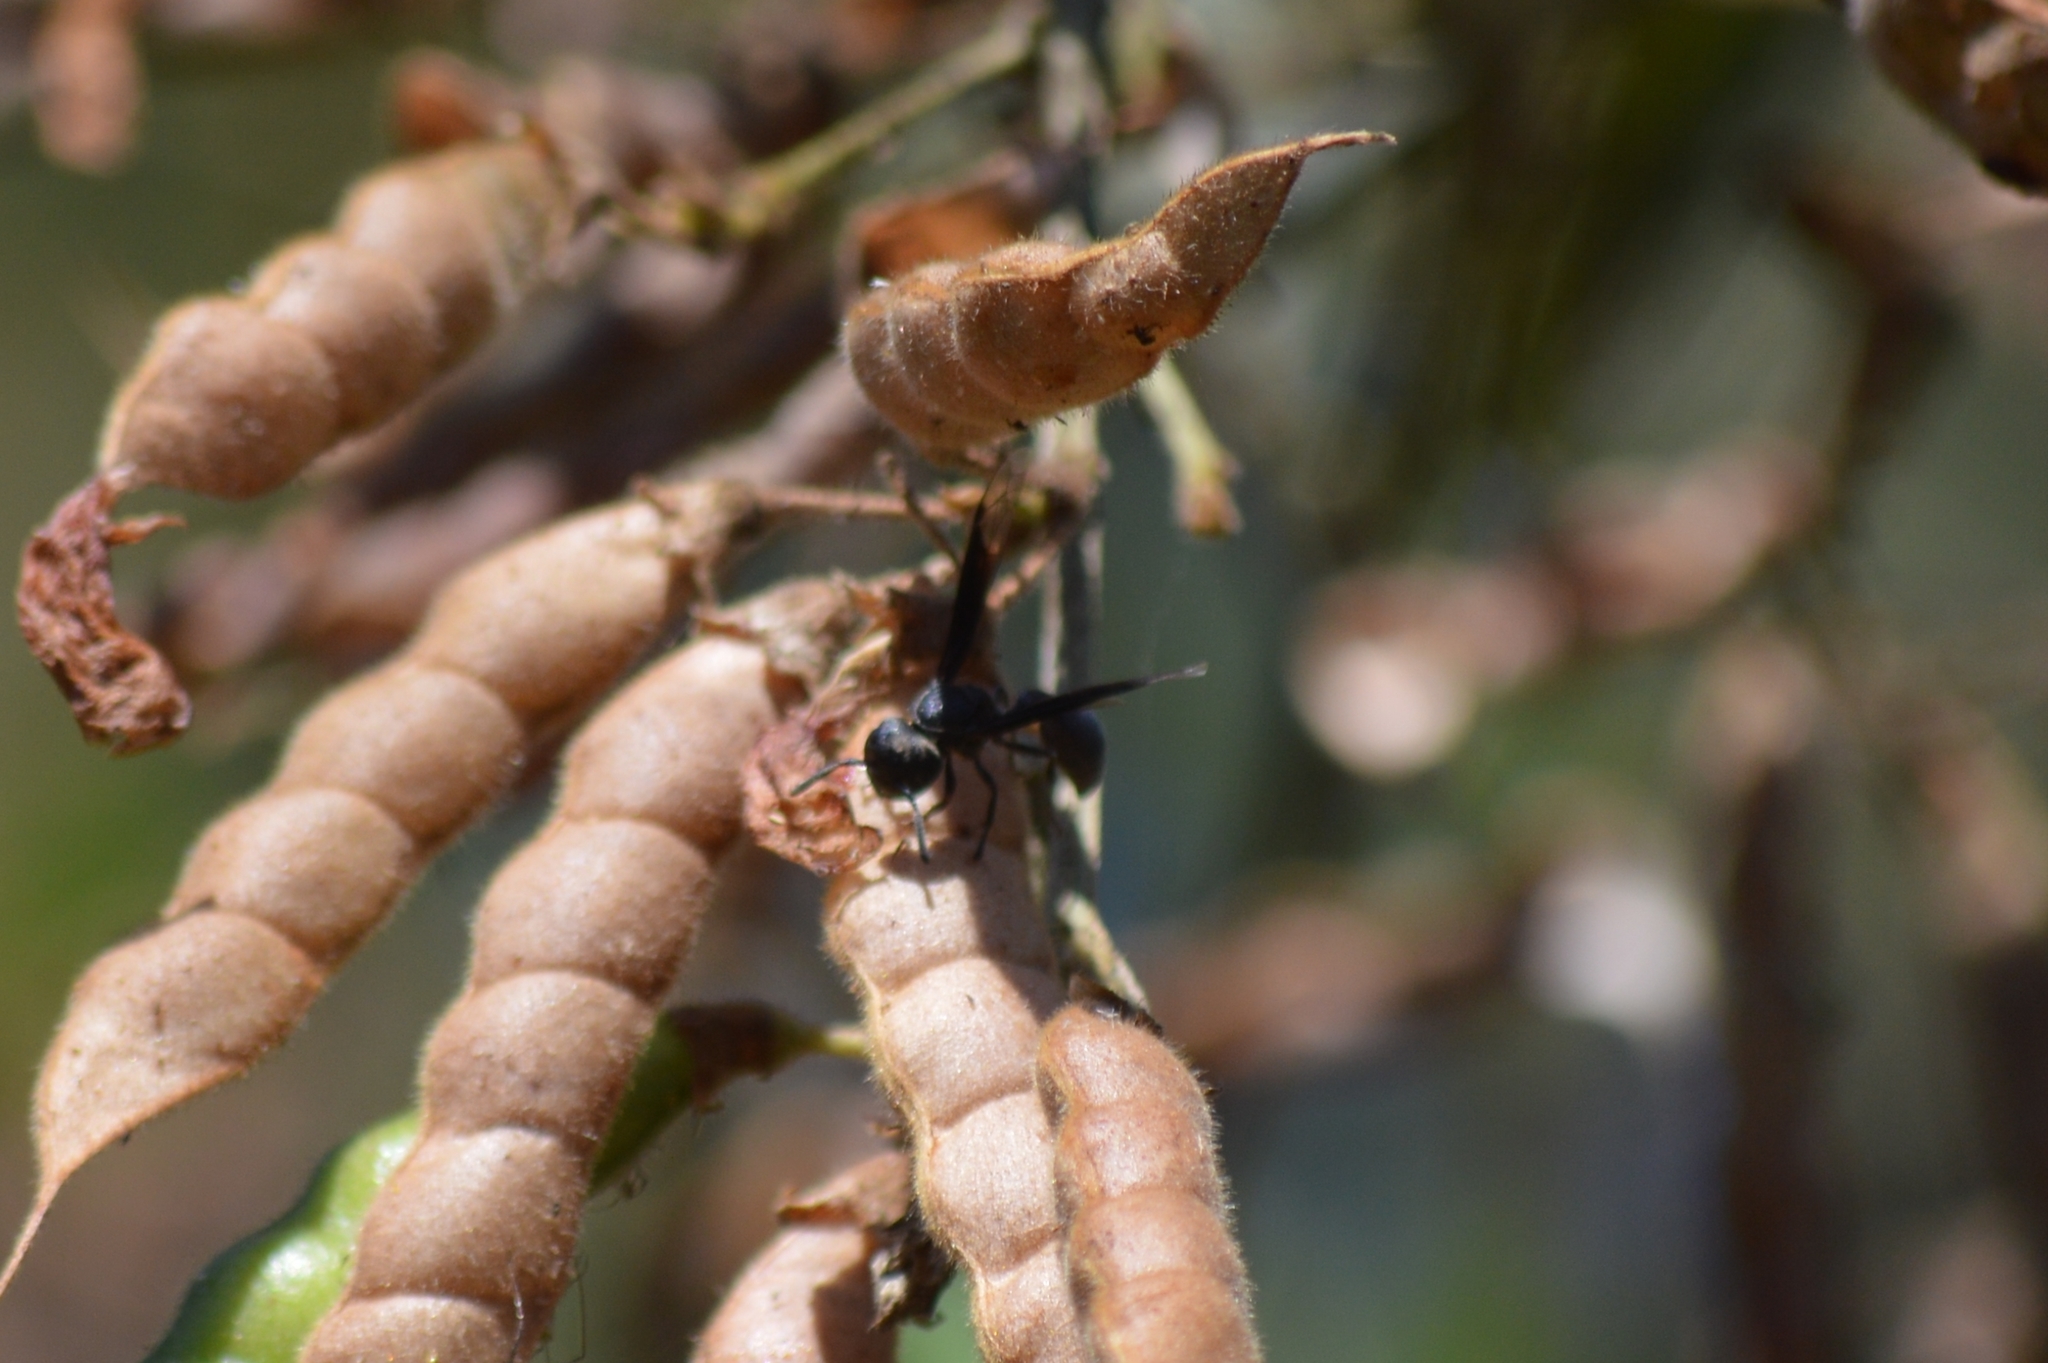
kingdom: Animalia
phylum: Arthropoda
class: Insecta
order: Hymenoptera
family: Eumenidae
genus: Polybia
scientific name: Polybia ignobilis
